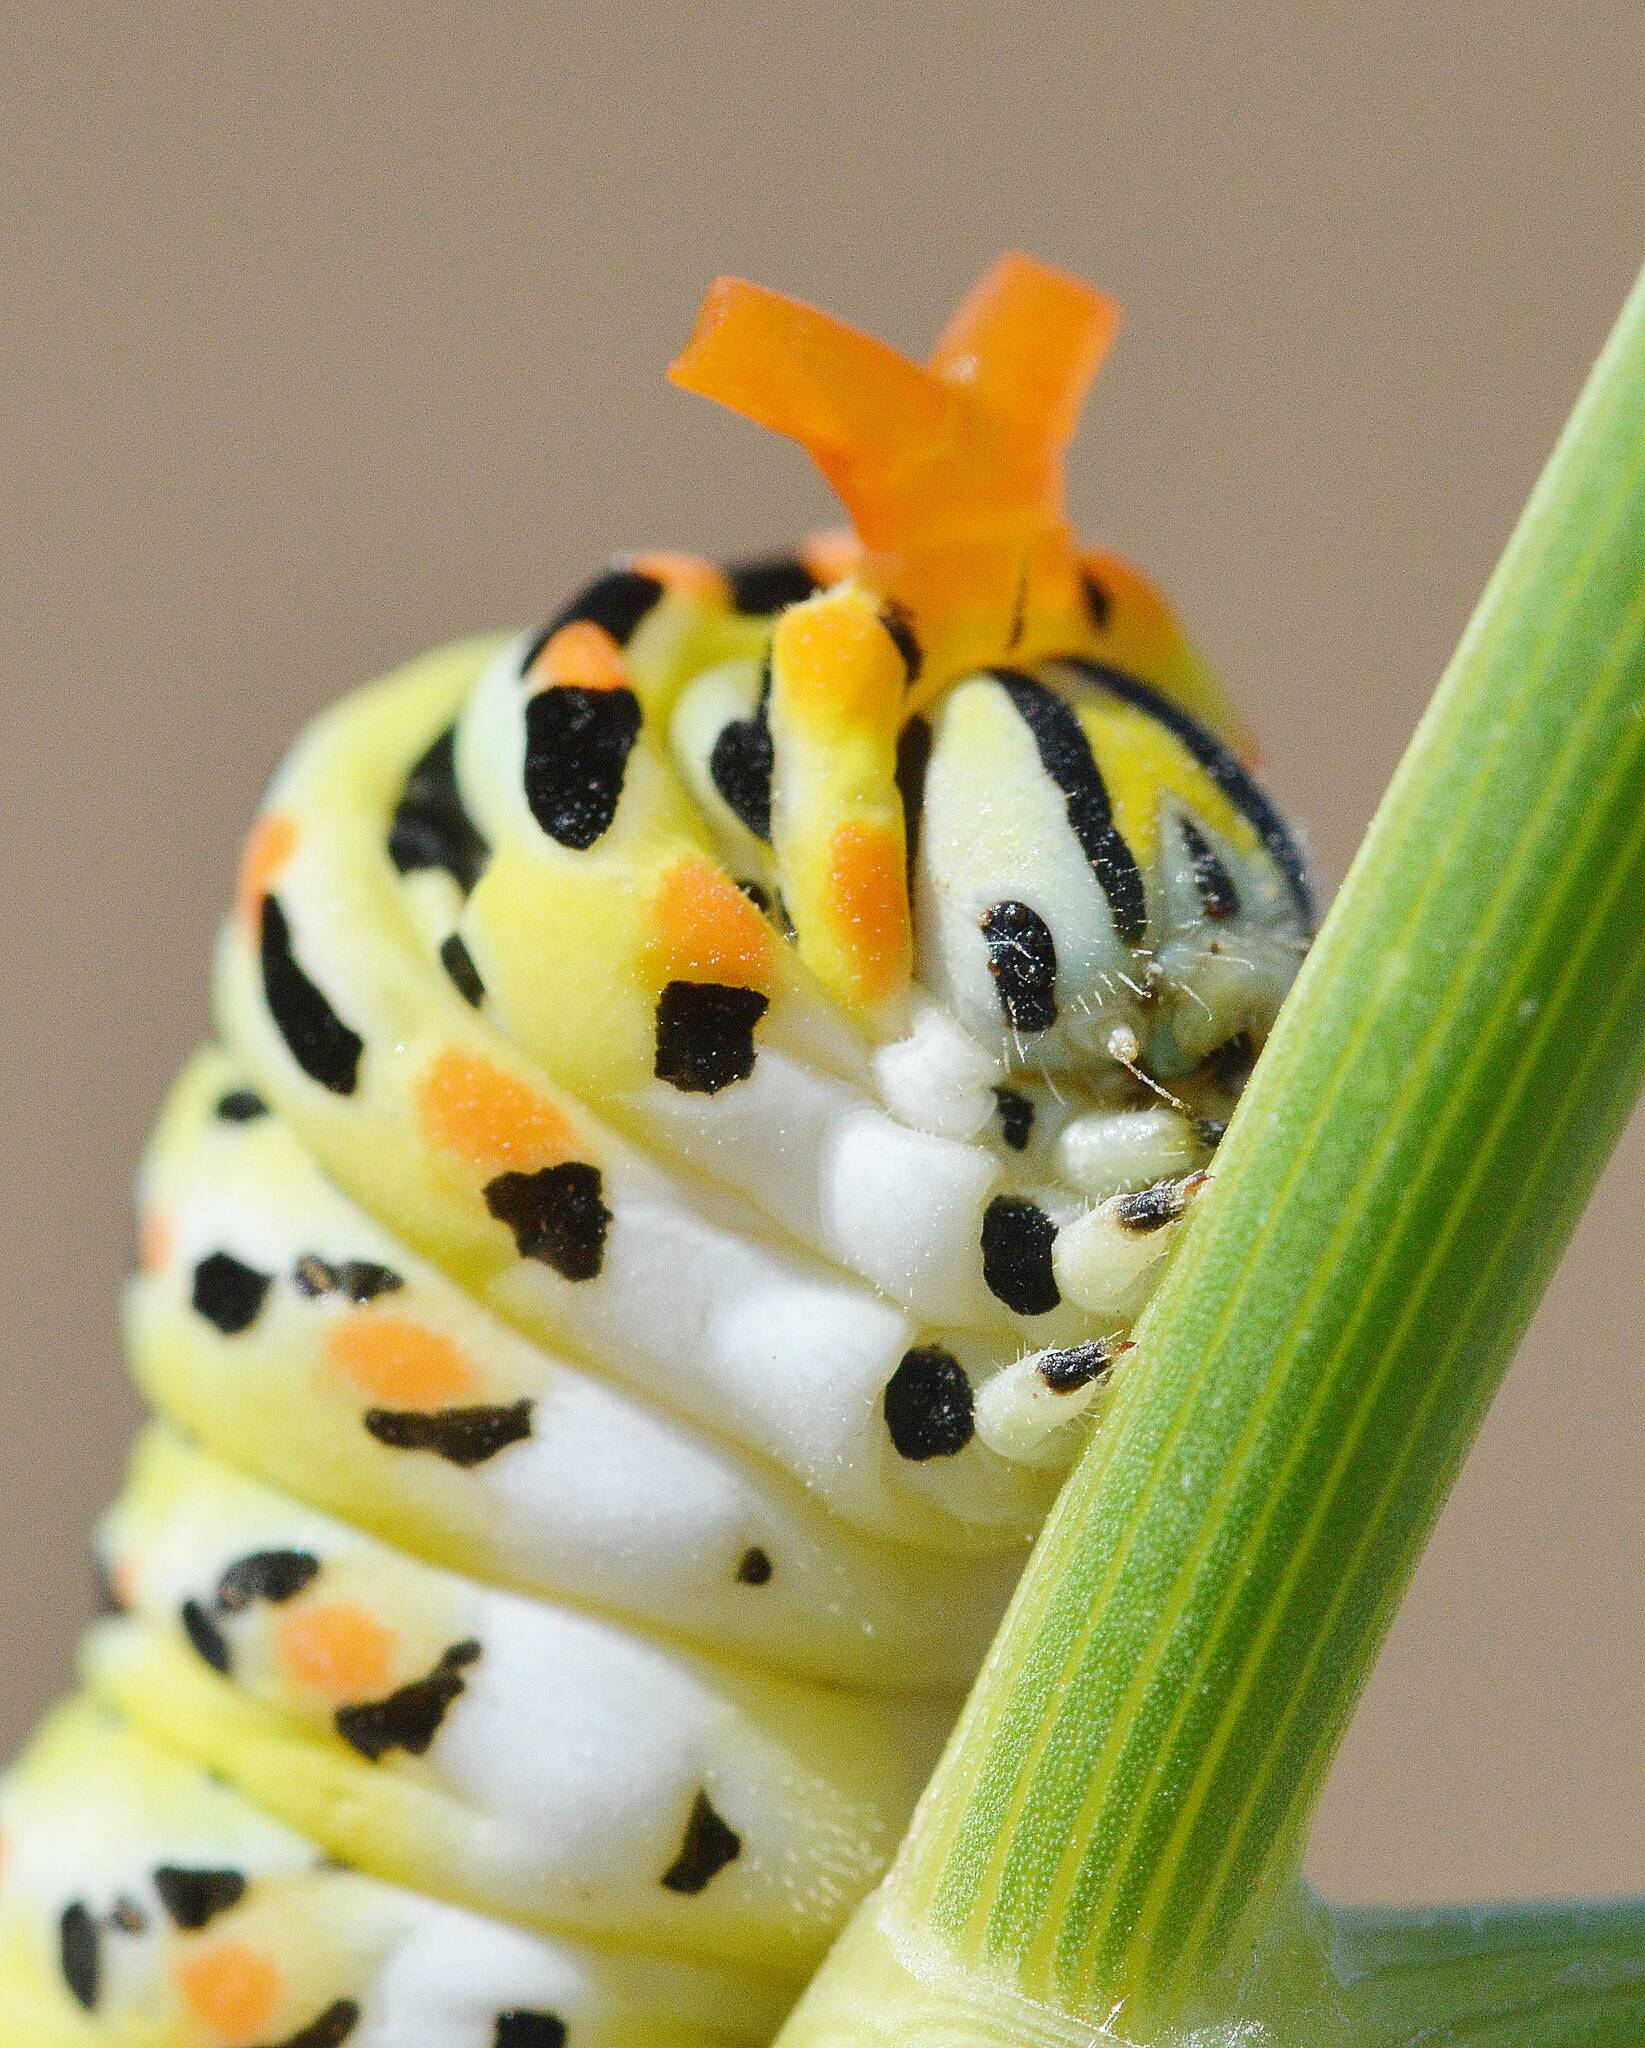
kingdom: Animalia
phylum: Arthropoda
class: Insecta
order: Lepidoptera
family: Papilionidae
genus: Papilio
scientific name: Papilio machaon
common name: Swallowtail
